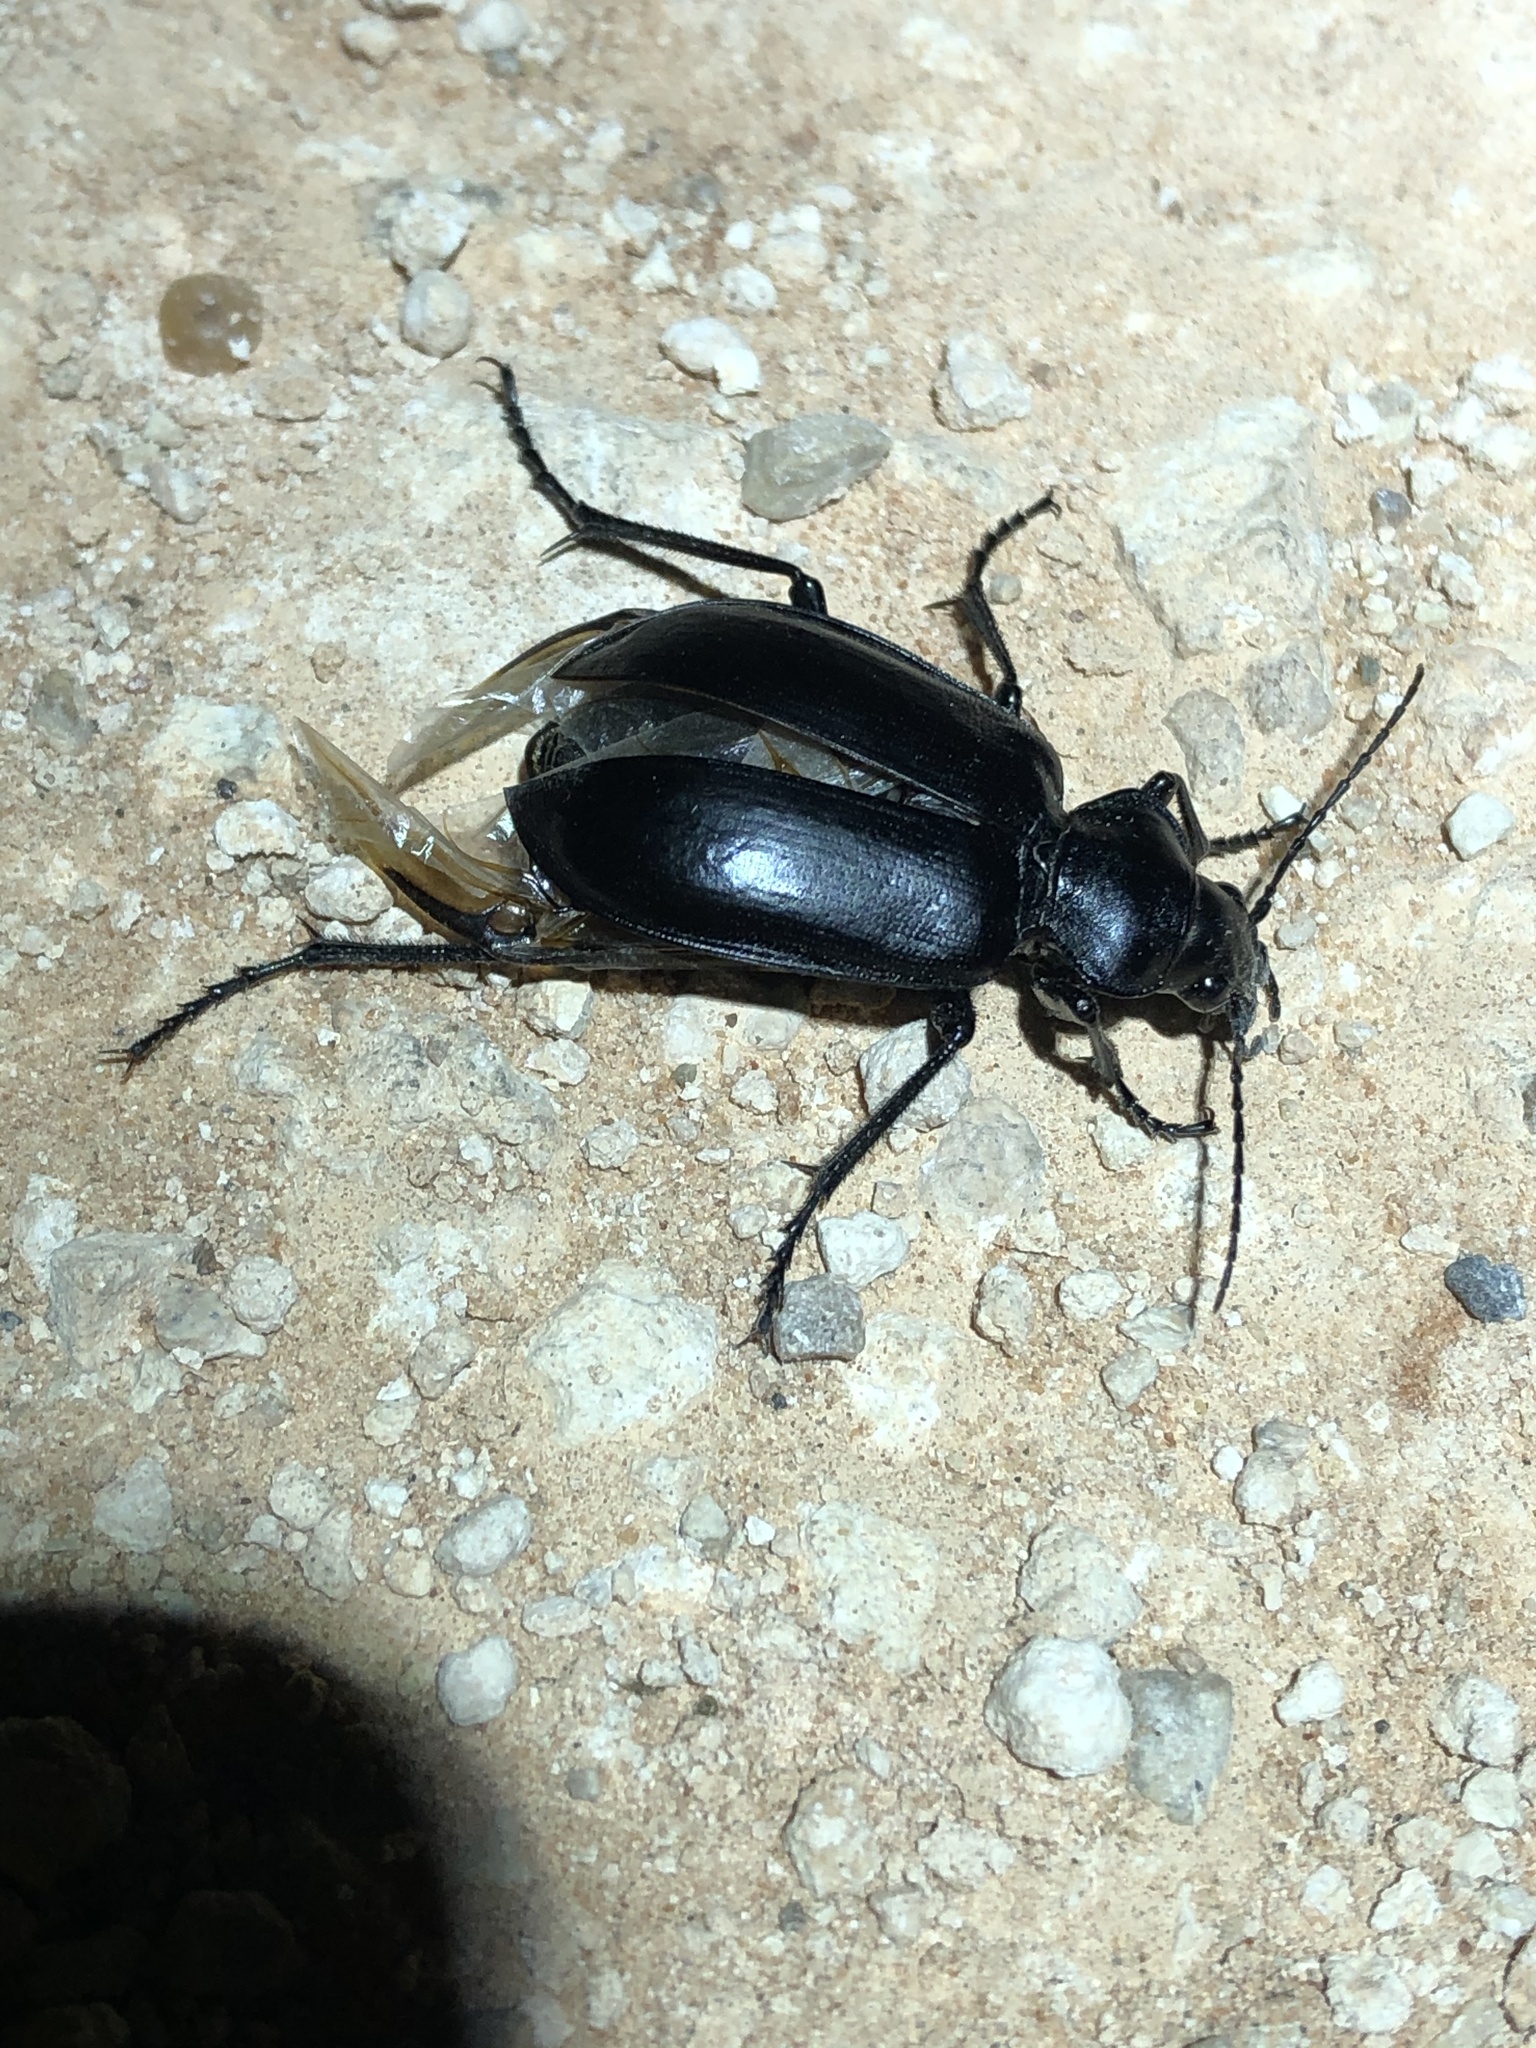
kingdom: Animalia
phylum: Arthropoda
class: Insecta
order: Coleoptera
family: Carabidae
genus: Calosoma
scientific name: Calosoma marginale
